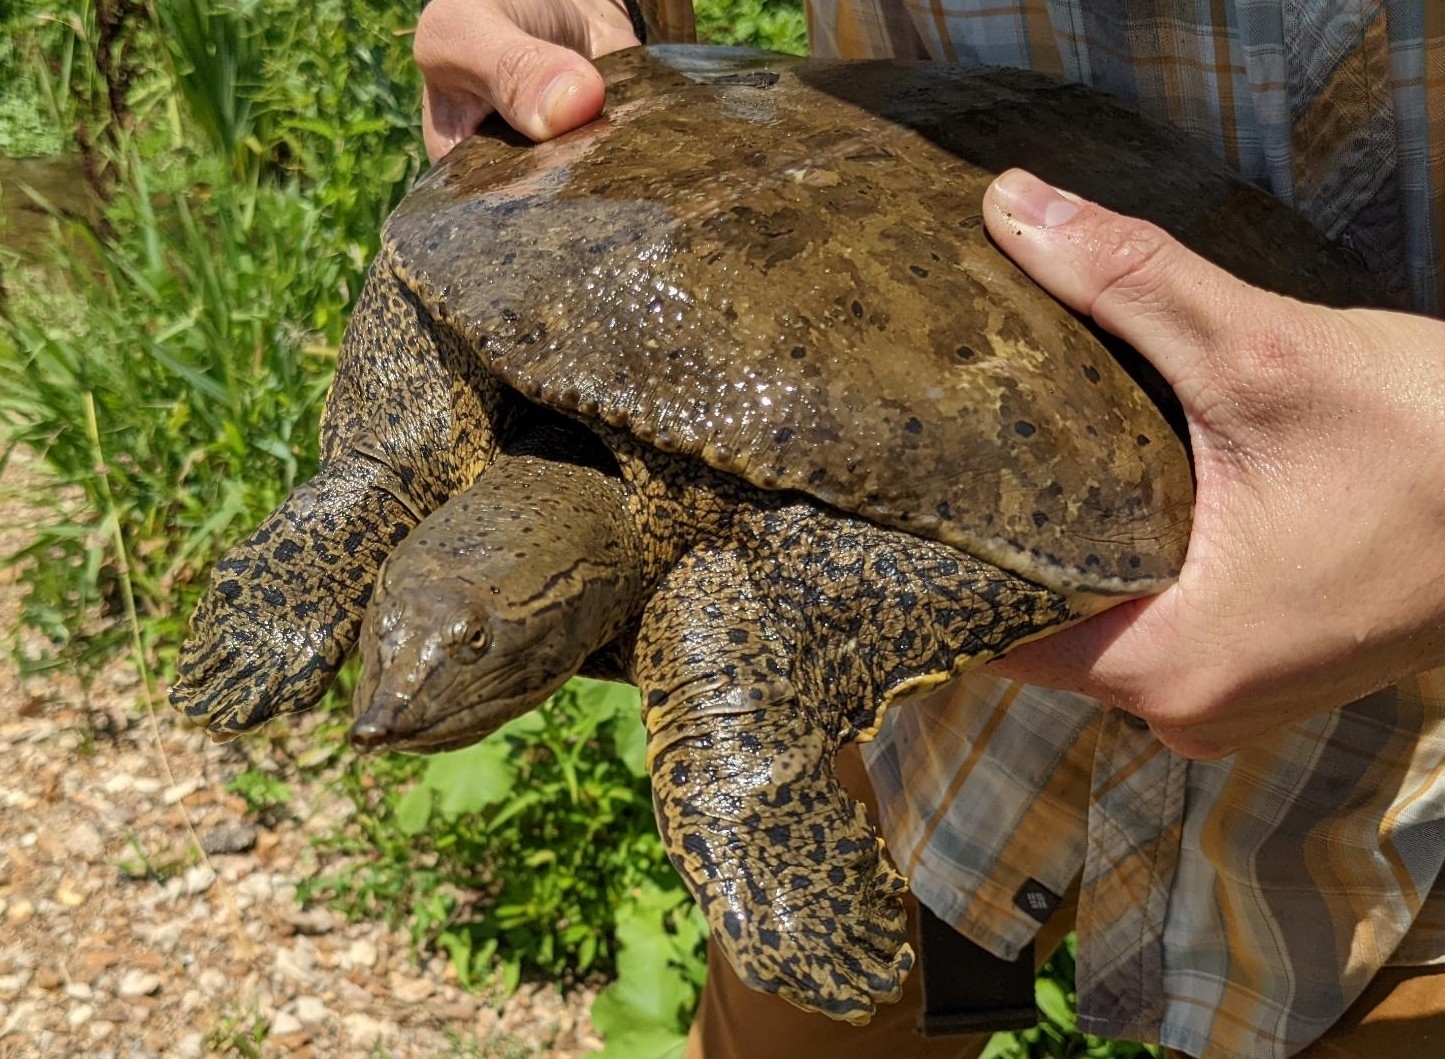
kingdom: Animalia
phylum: Chordata
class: Testudines
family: Trionychidae
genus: Apalone
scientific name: Apalone spinifera
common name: Spiny softshell turtle
